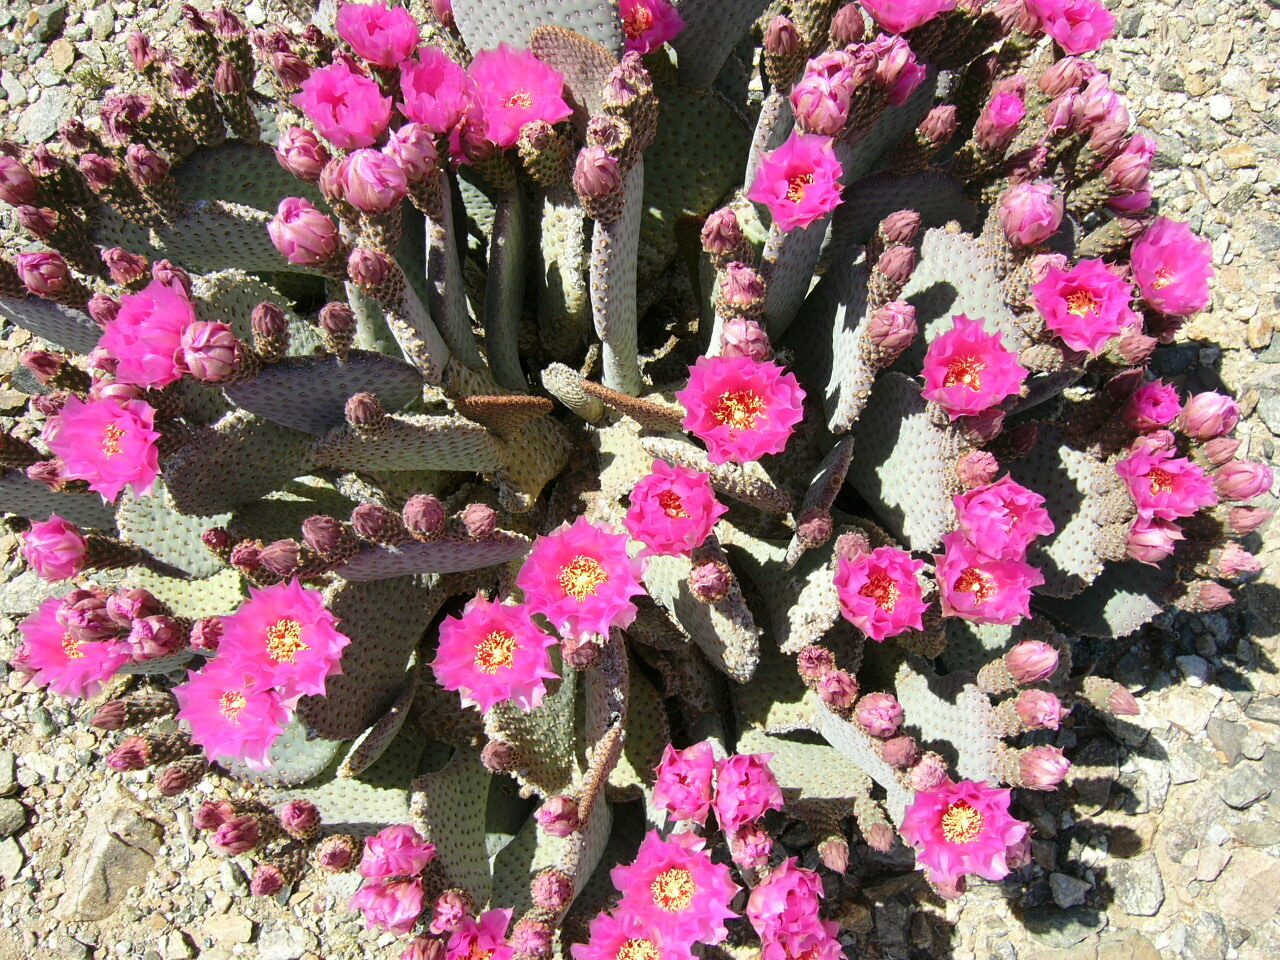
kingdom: Plantae
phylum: Tracheophyta
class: Magnoliopsida
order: Caryophyllales
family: Cactaceae
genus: Opuntia
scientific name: Opuntia basilaris
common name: Beavertail prickly-pear
